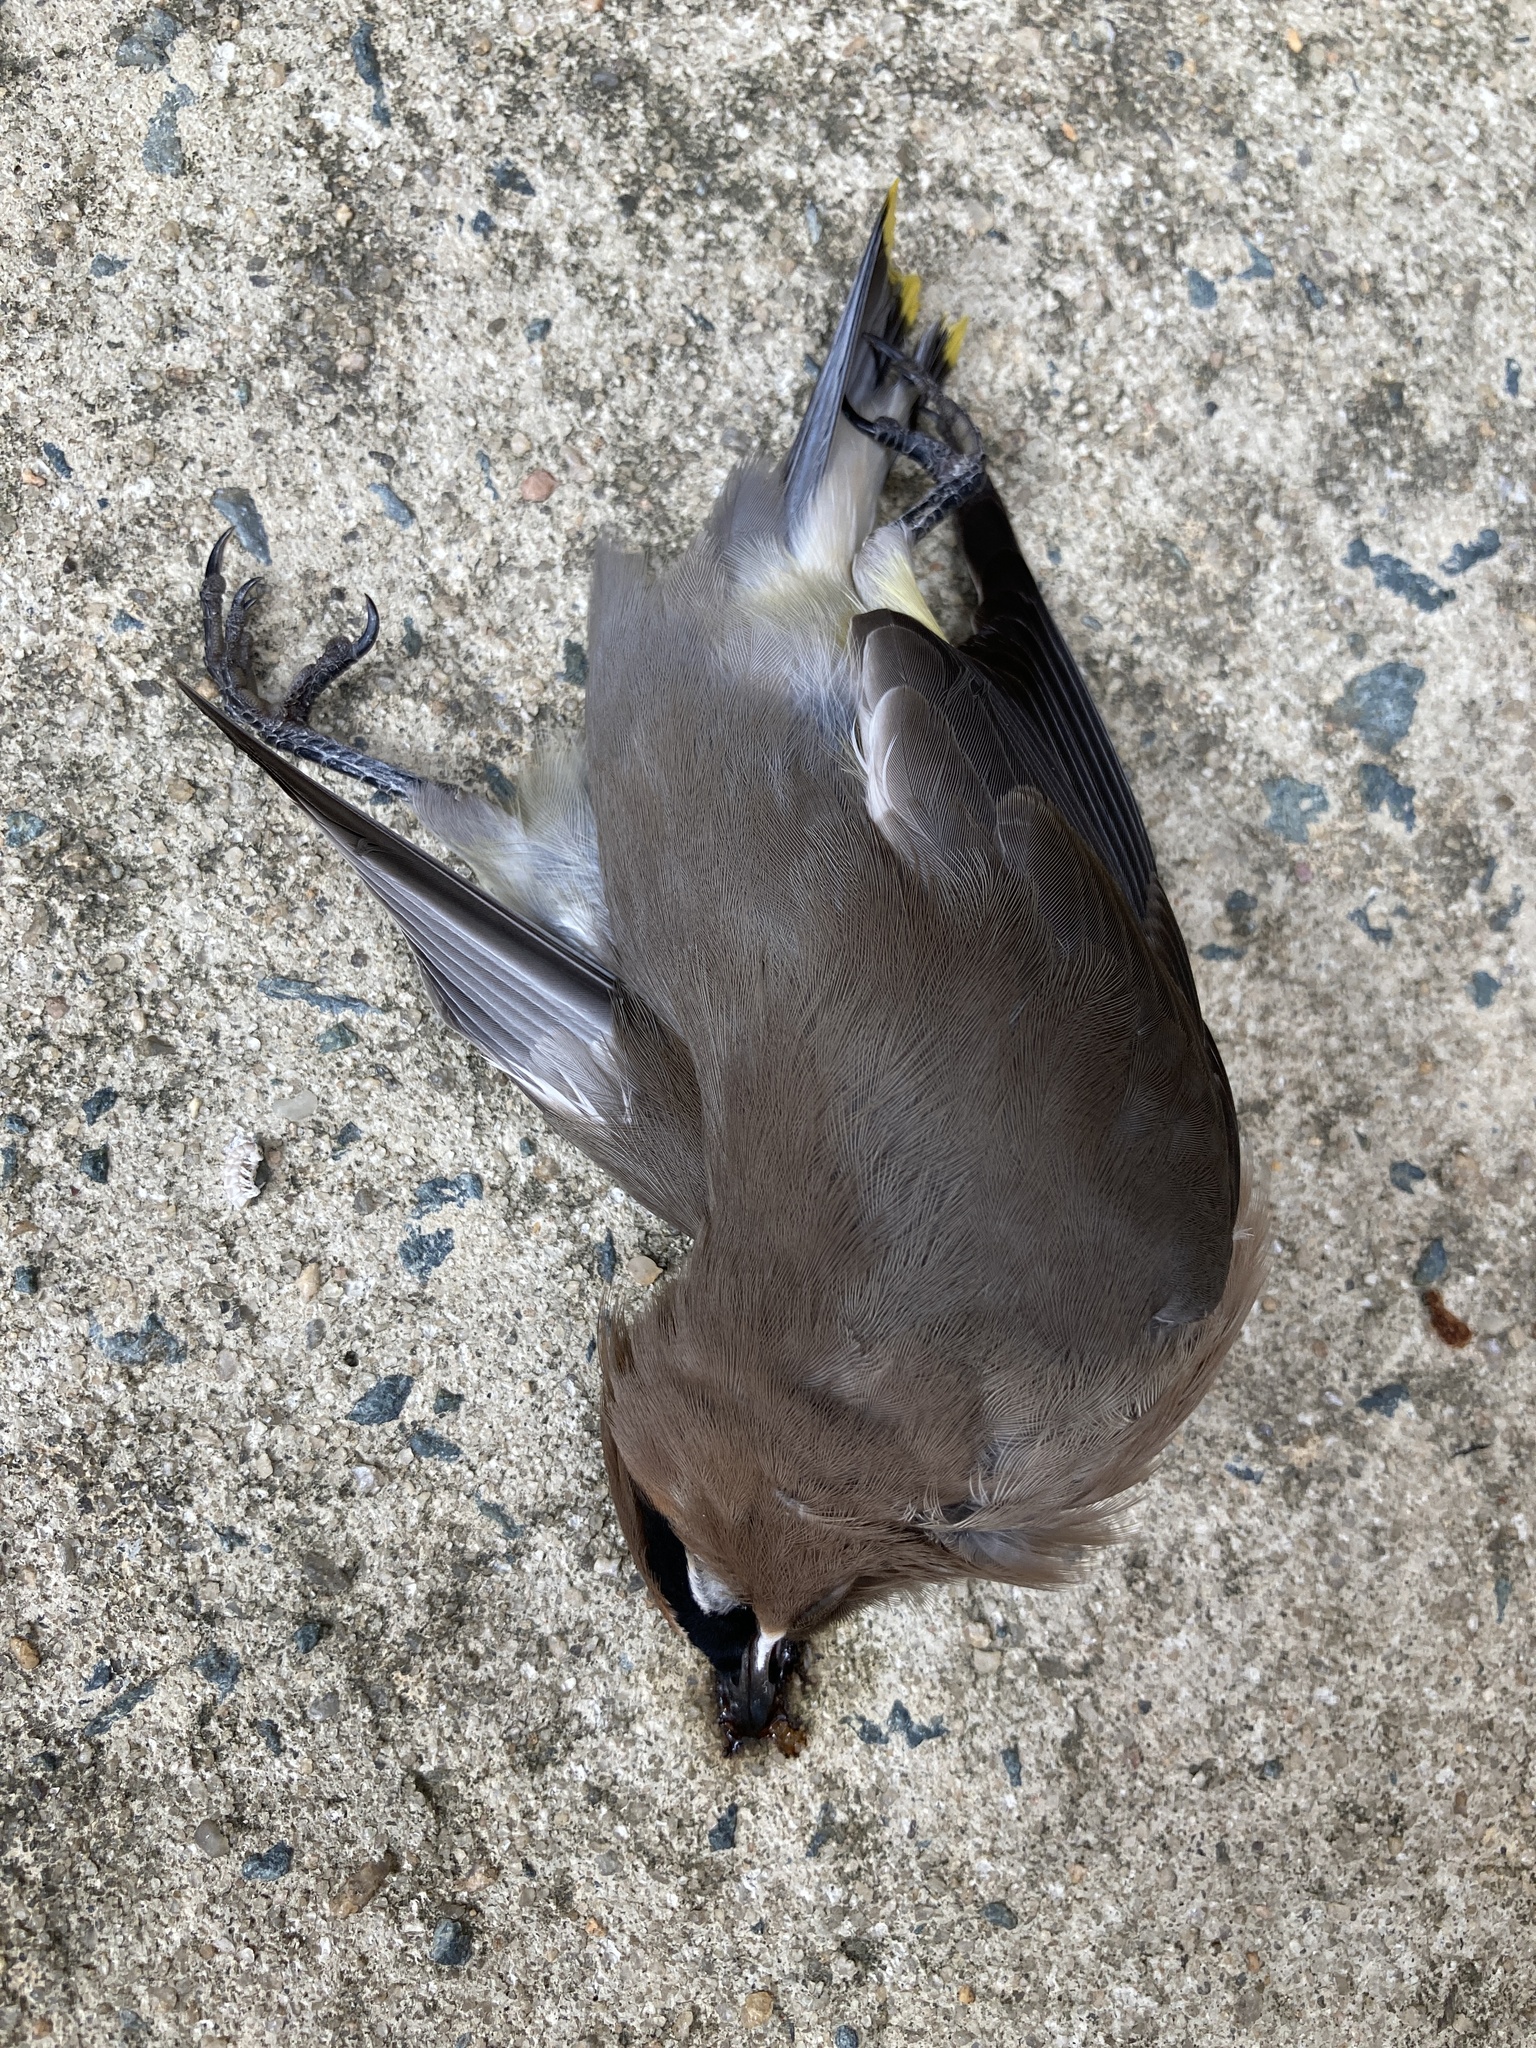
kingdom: Animalia
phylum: Chordata
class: Aves
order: Passeriformes
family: Bombycillidae
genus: Bombycilla
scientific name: Bombycilla cedrorum
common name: Cedar waxwing
